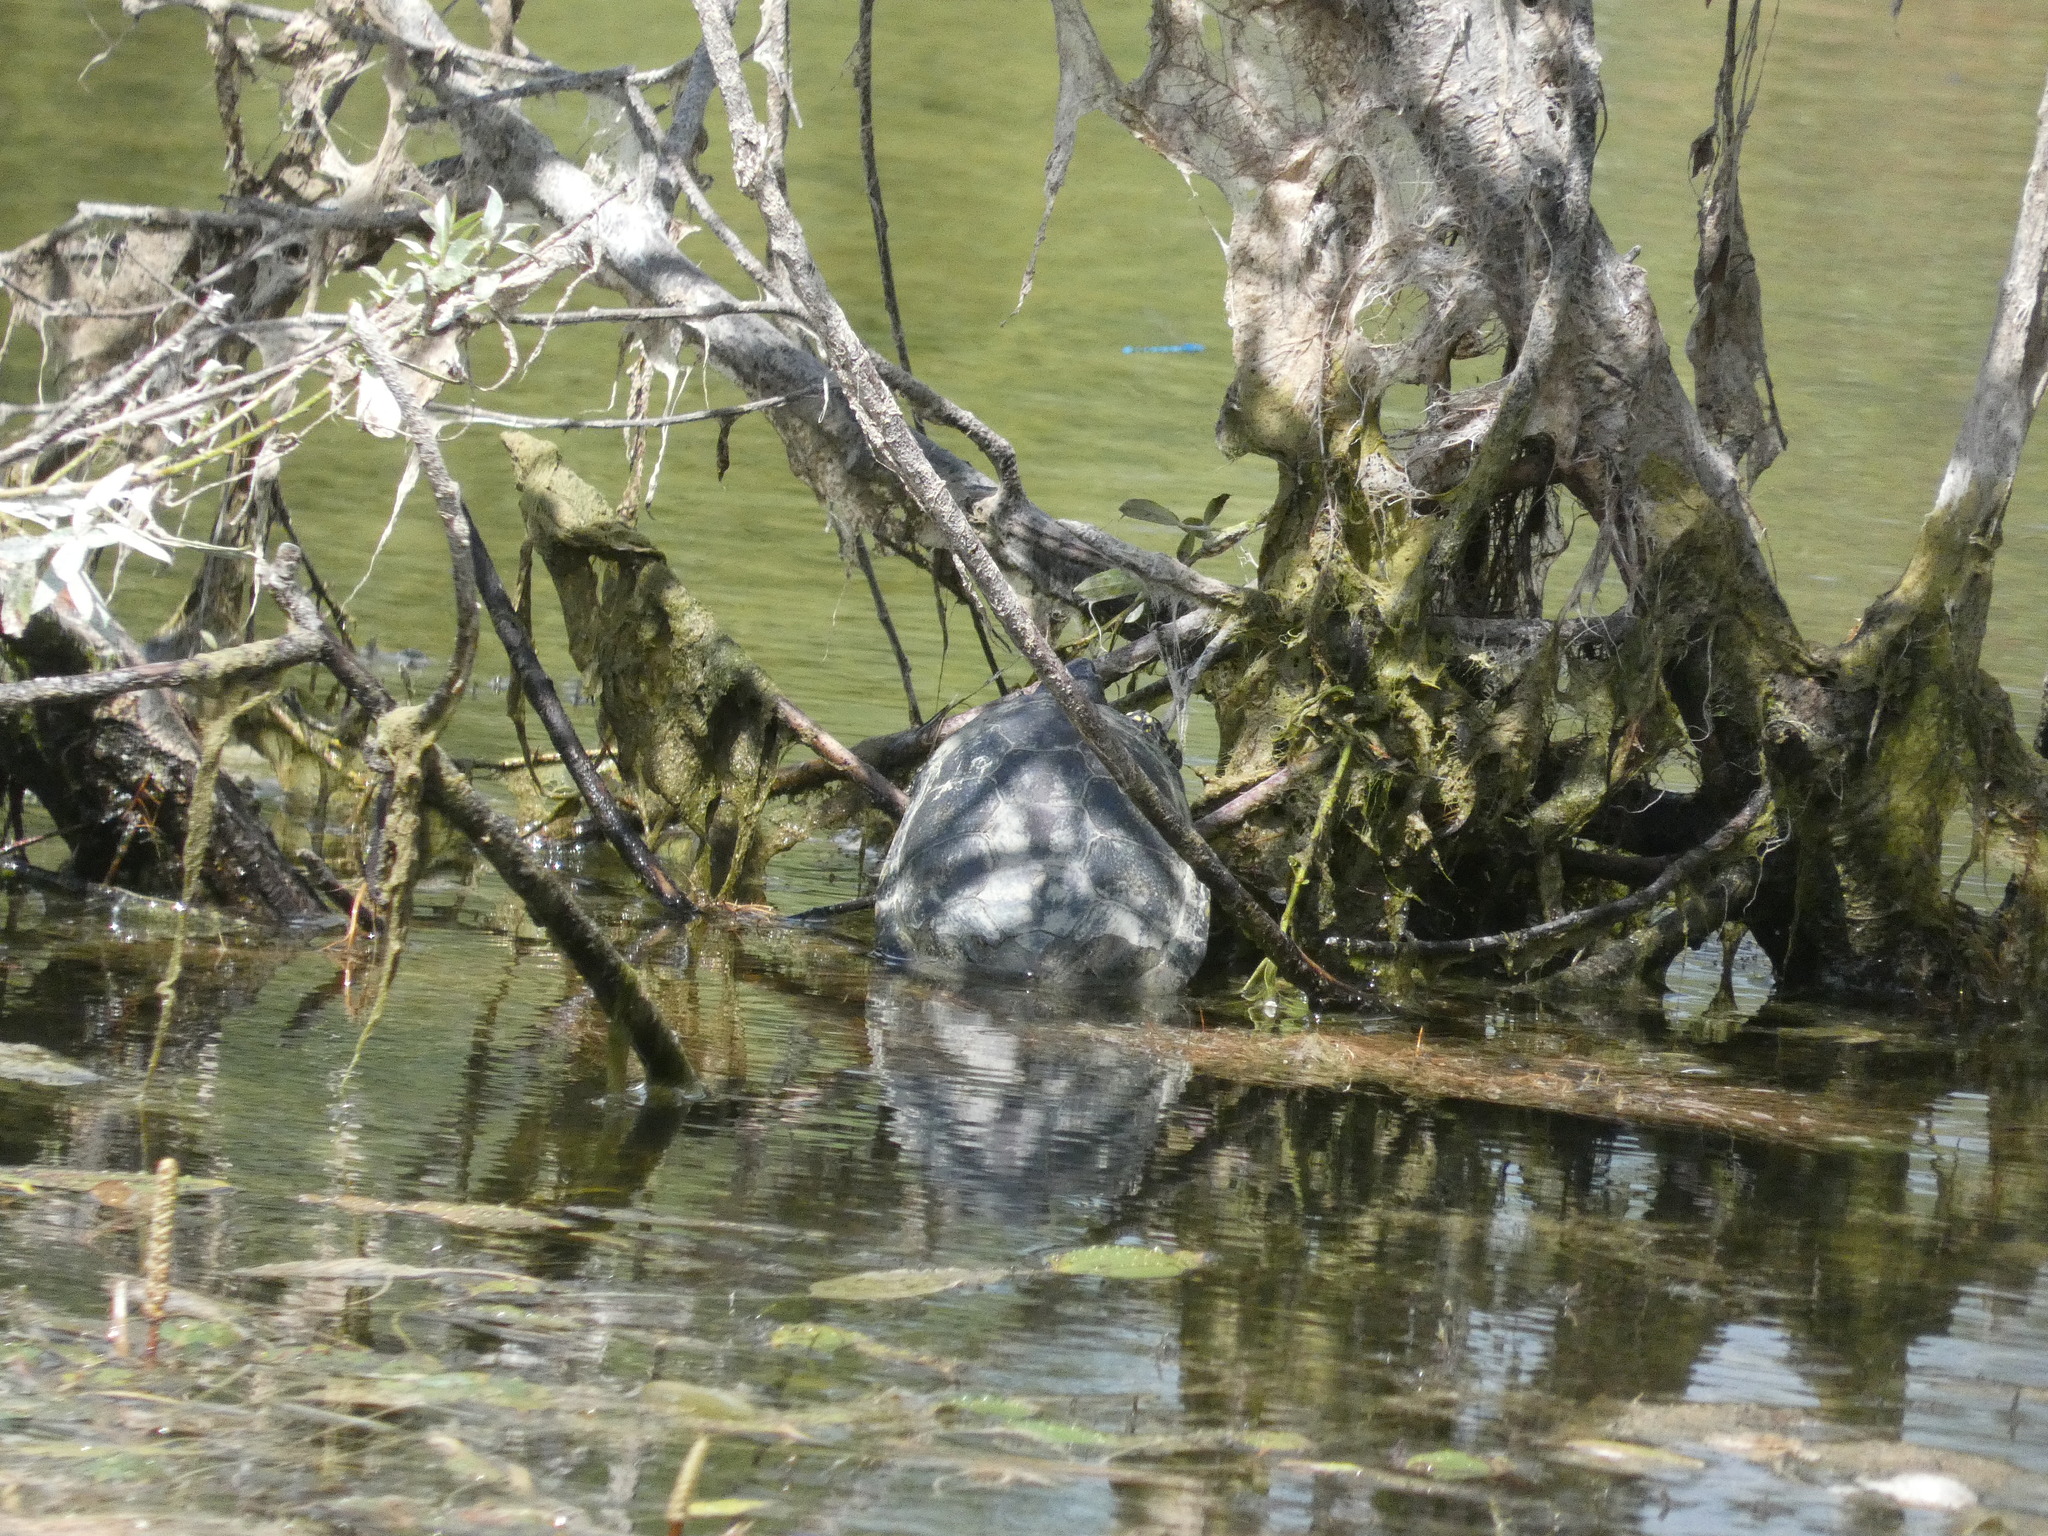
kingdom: Animalia
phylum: Chordata
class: Testudines
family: Emydidae
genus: Emys
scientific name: Emys orbicularis
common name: European pond turtle
